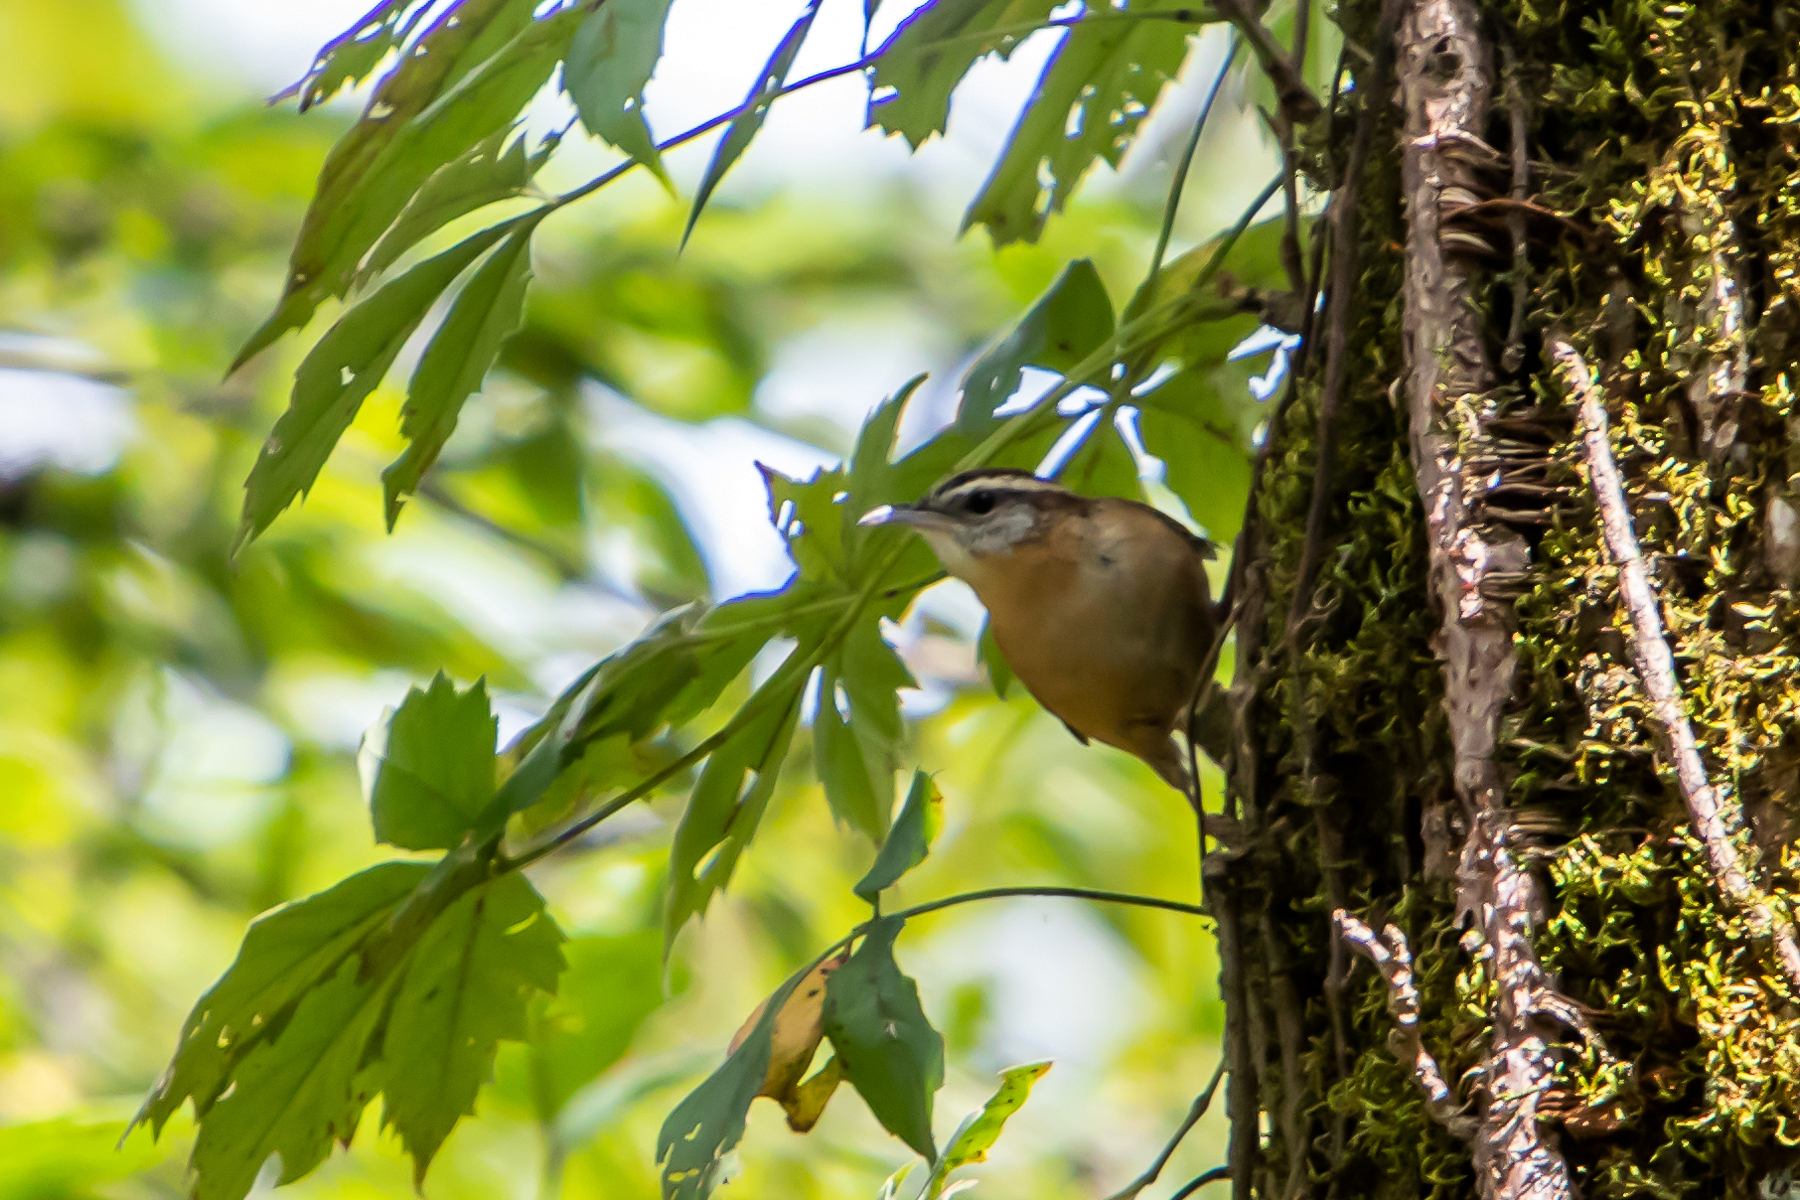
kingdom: Animalia
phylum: Chordata
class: Aves
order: Passeriformes
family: Troglodytidae
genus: Thryothorus
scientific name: Thryothorus ludovicianus
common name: Carolina wren
